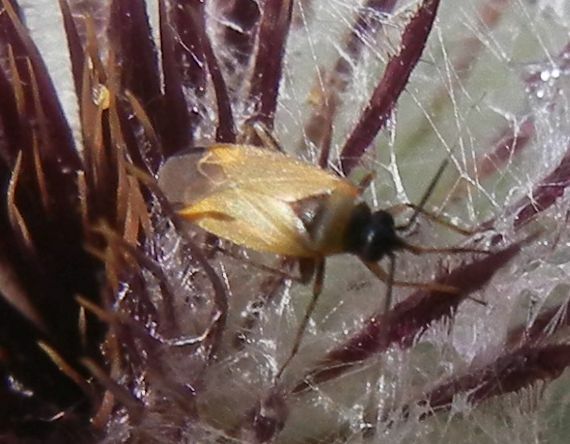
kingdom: Animalia
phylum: Arthropoda
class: Insecta
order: Hemiptera
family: Miridae
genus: Plagiognathus
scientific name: Plagiognathus arbustorum
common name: Plant bug
